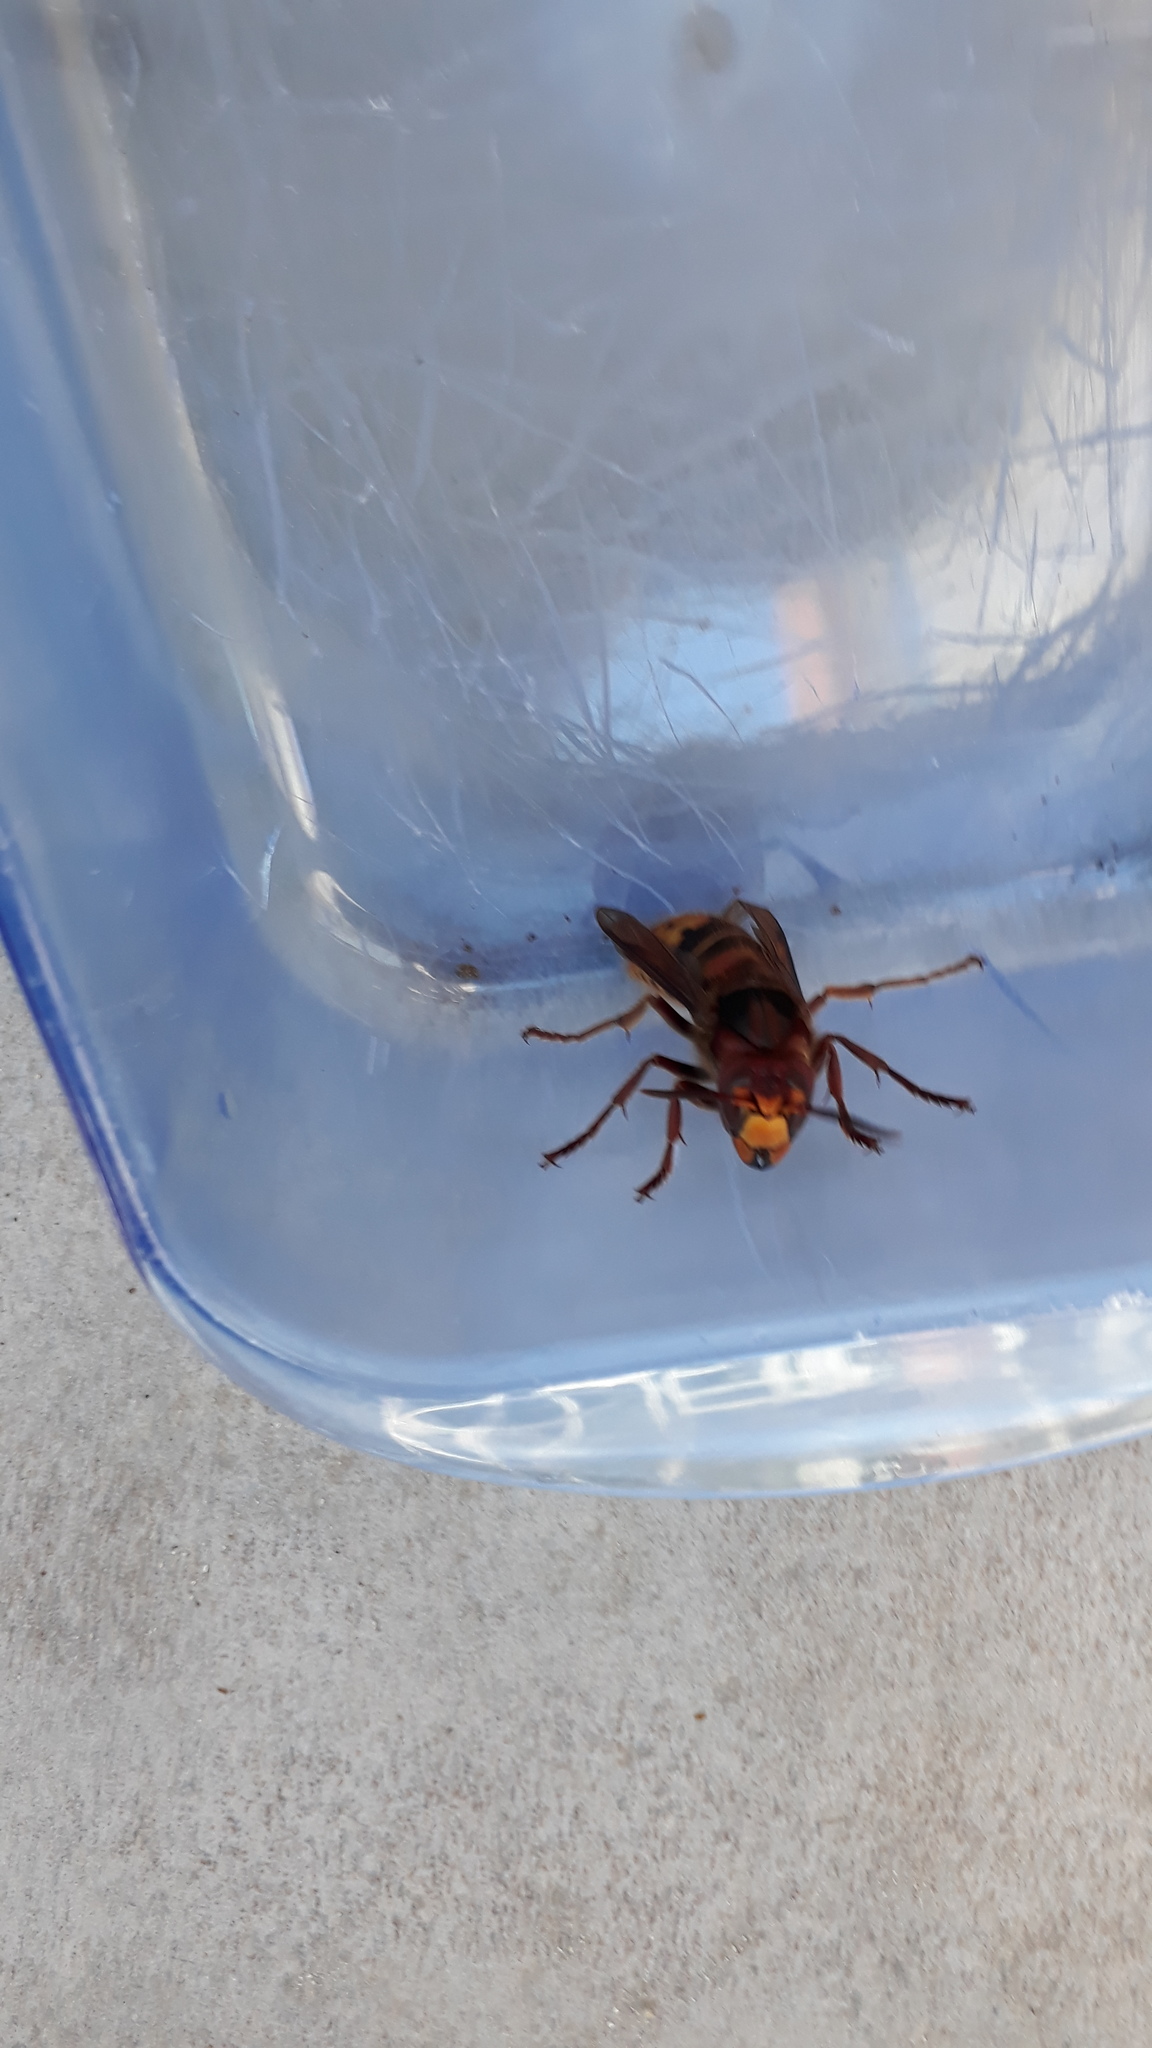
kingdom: Animalia
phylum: Arthropoda
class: Insecta
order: Hymenoptera
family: Vespidae
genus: Vespa
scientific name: Vespa crabro
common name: Hornet
